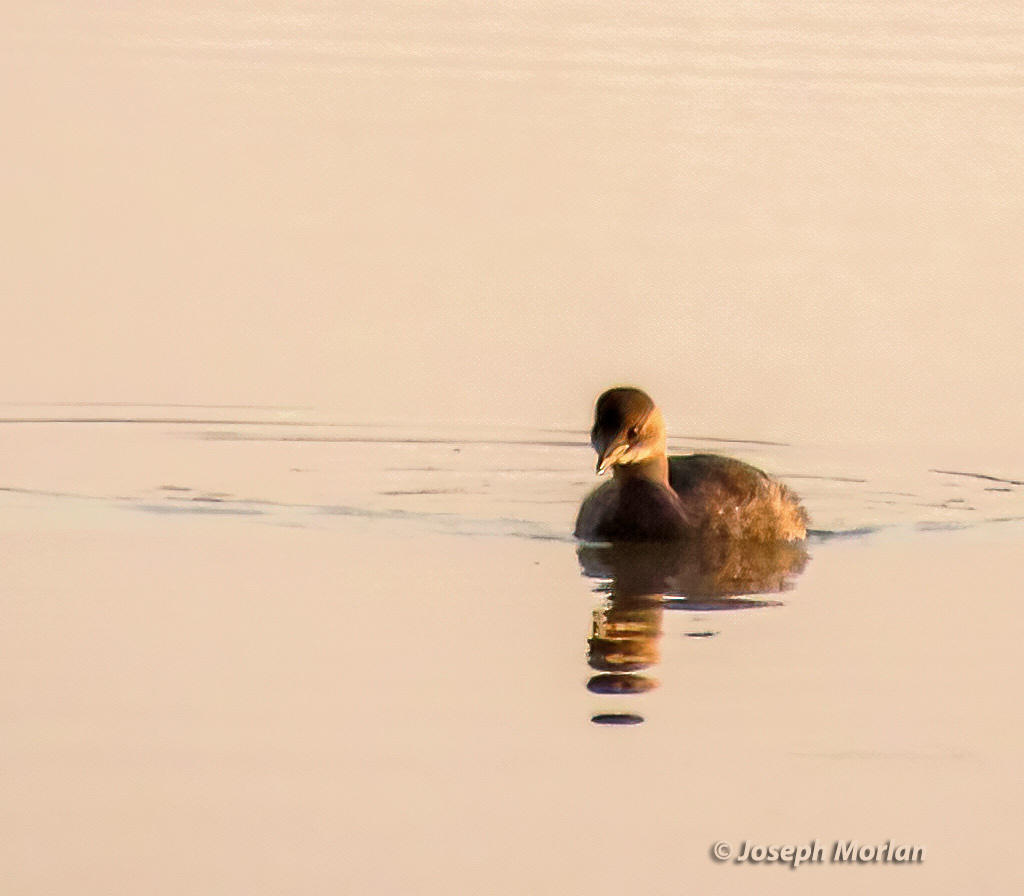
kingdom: Animalia
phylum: Chordata
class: Aves
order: Podicipediformes
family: Podicipedidae
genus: Tachybaptus
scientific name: Tachybaptus ruficollis
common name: Little grebe
